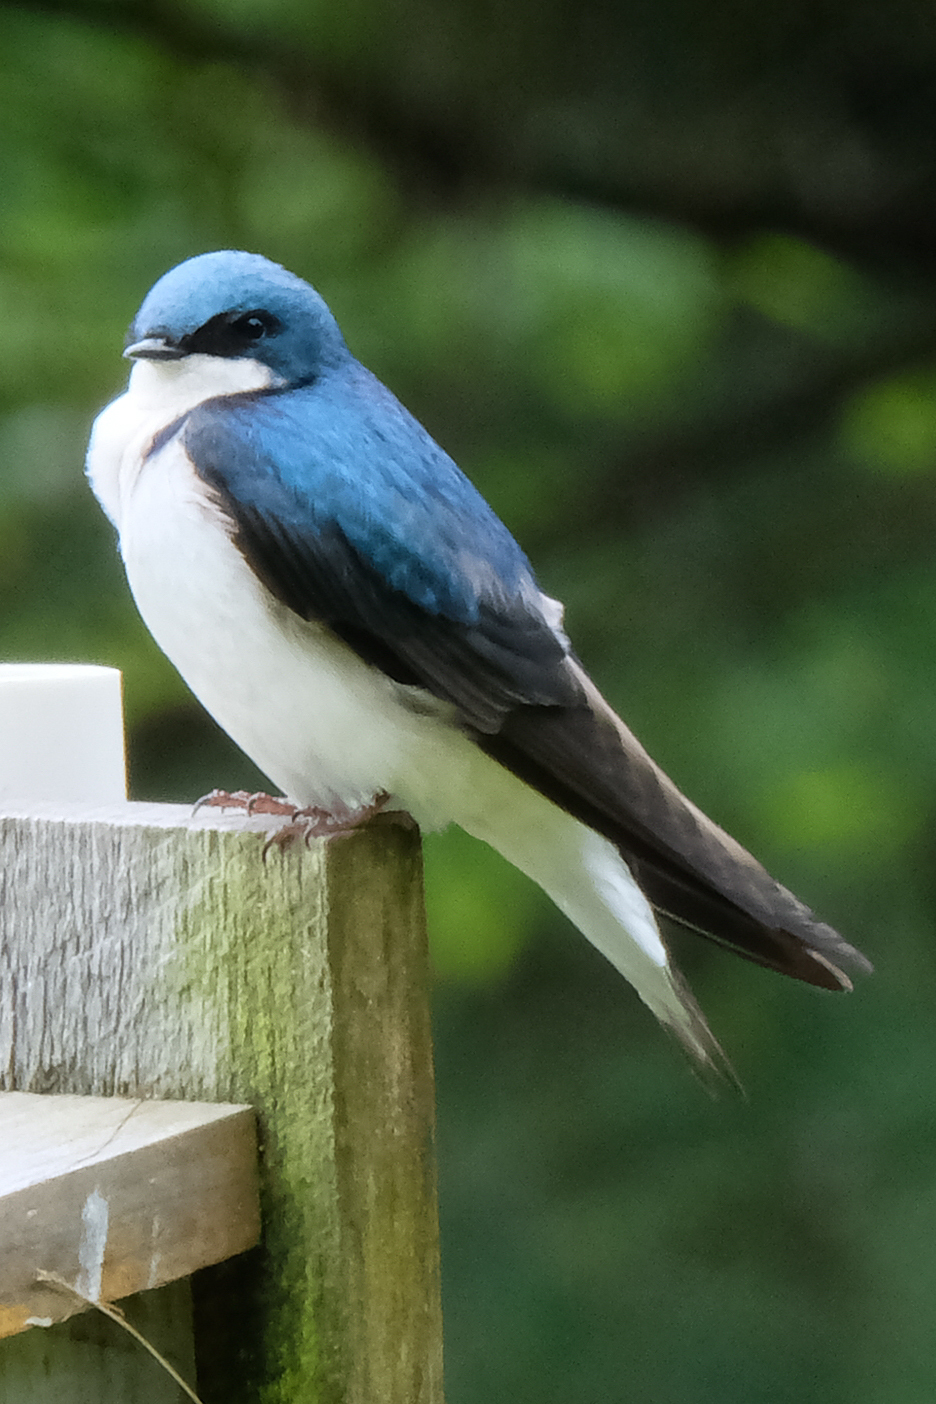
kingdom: Animalia
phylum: Chordata
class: Aves
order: Passeriformes
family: Hirundinidae
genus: Tachycineta
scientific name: Tachycineta bicolor
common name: Tree swallow
